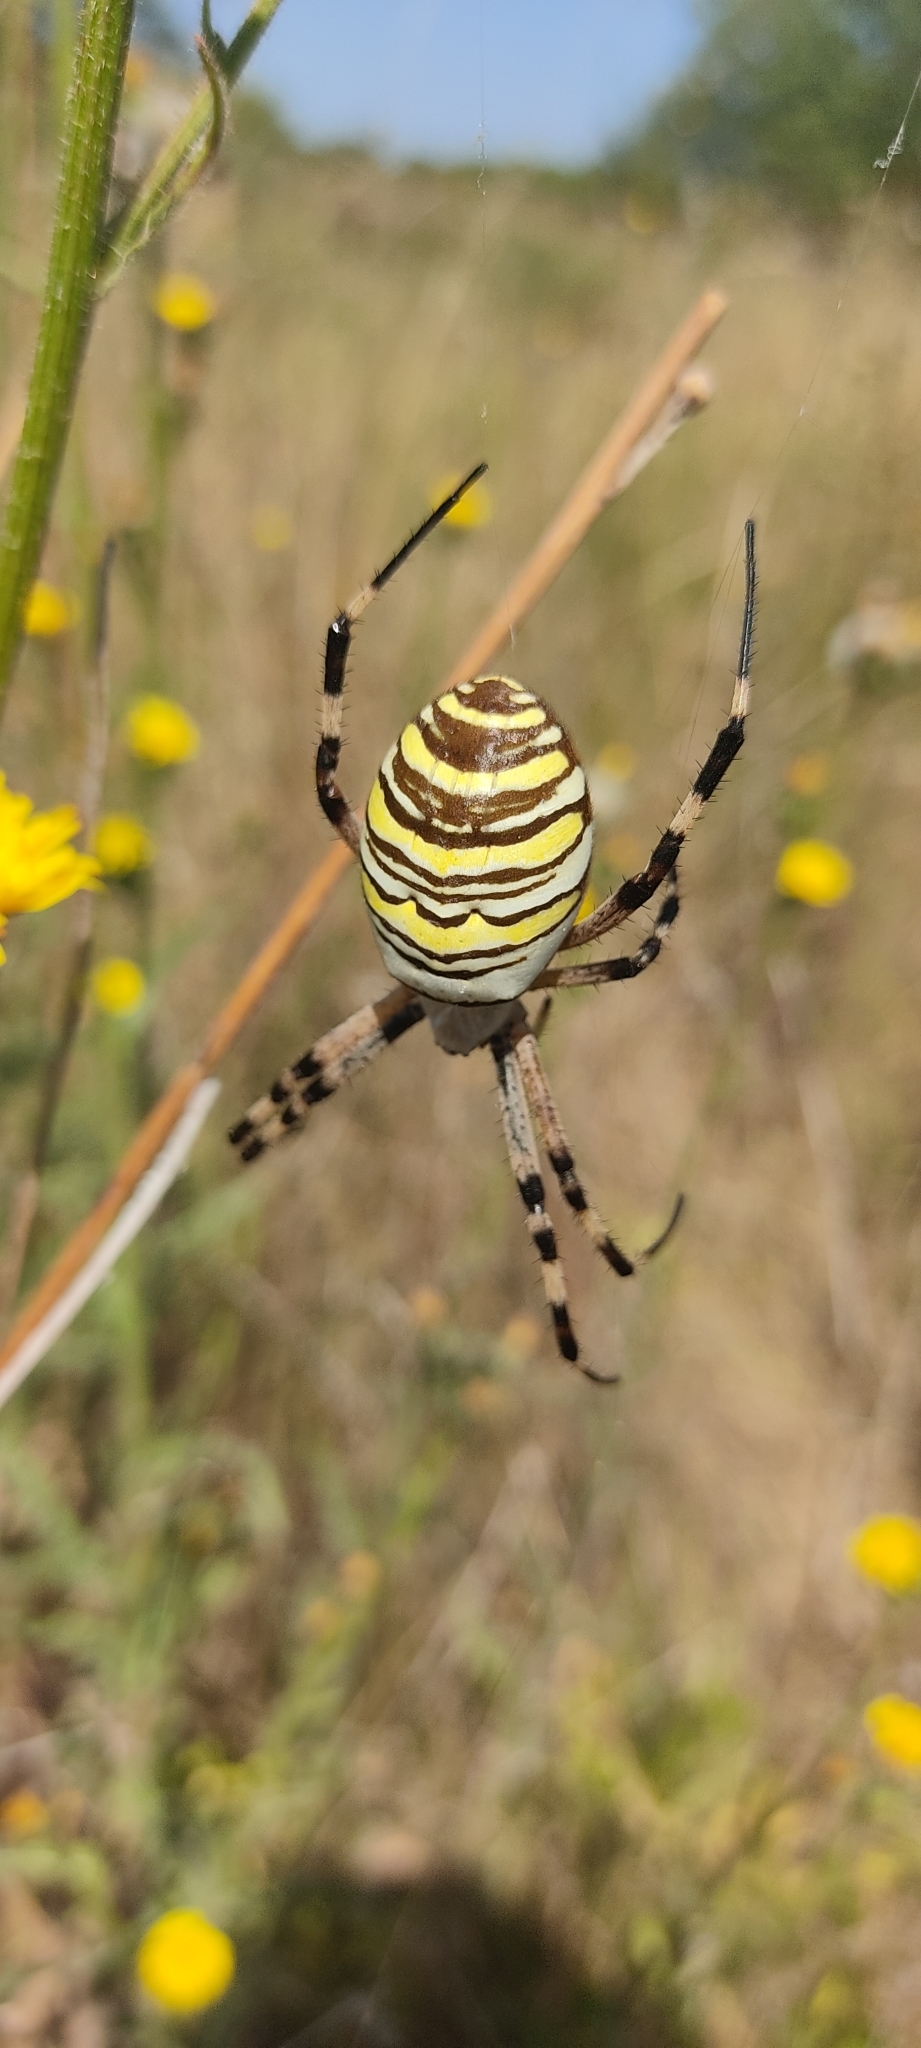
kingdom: Animalia
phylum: Arthropoda
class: Arachnida
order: Araneae
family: Araneidae
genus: Argiope
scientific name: Argiope bruennichi
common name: Wasp spider
